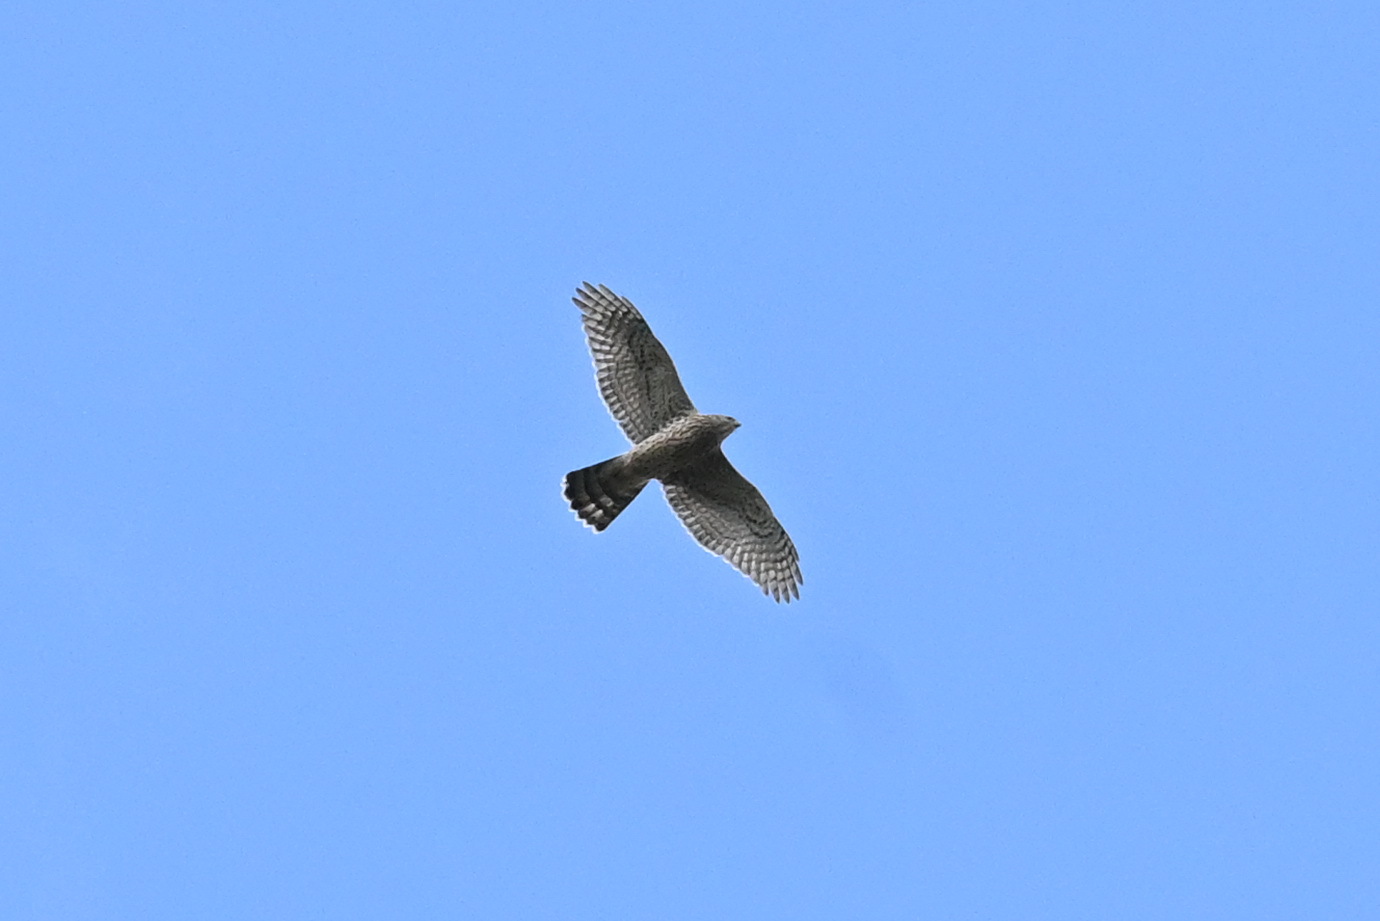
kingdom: Animalia
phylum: Chordata
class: Aves
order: Accipitriformes
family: Accipitridae
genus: Accipiter
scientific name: Accipiter gentilis
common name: Northern goshawk
